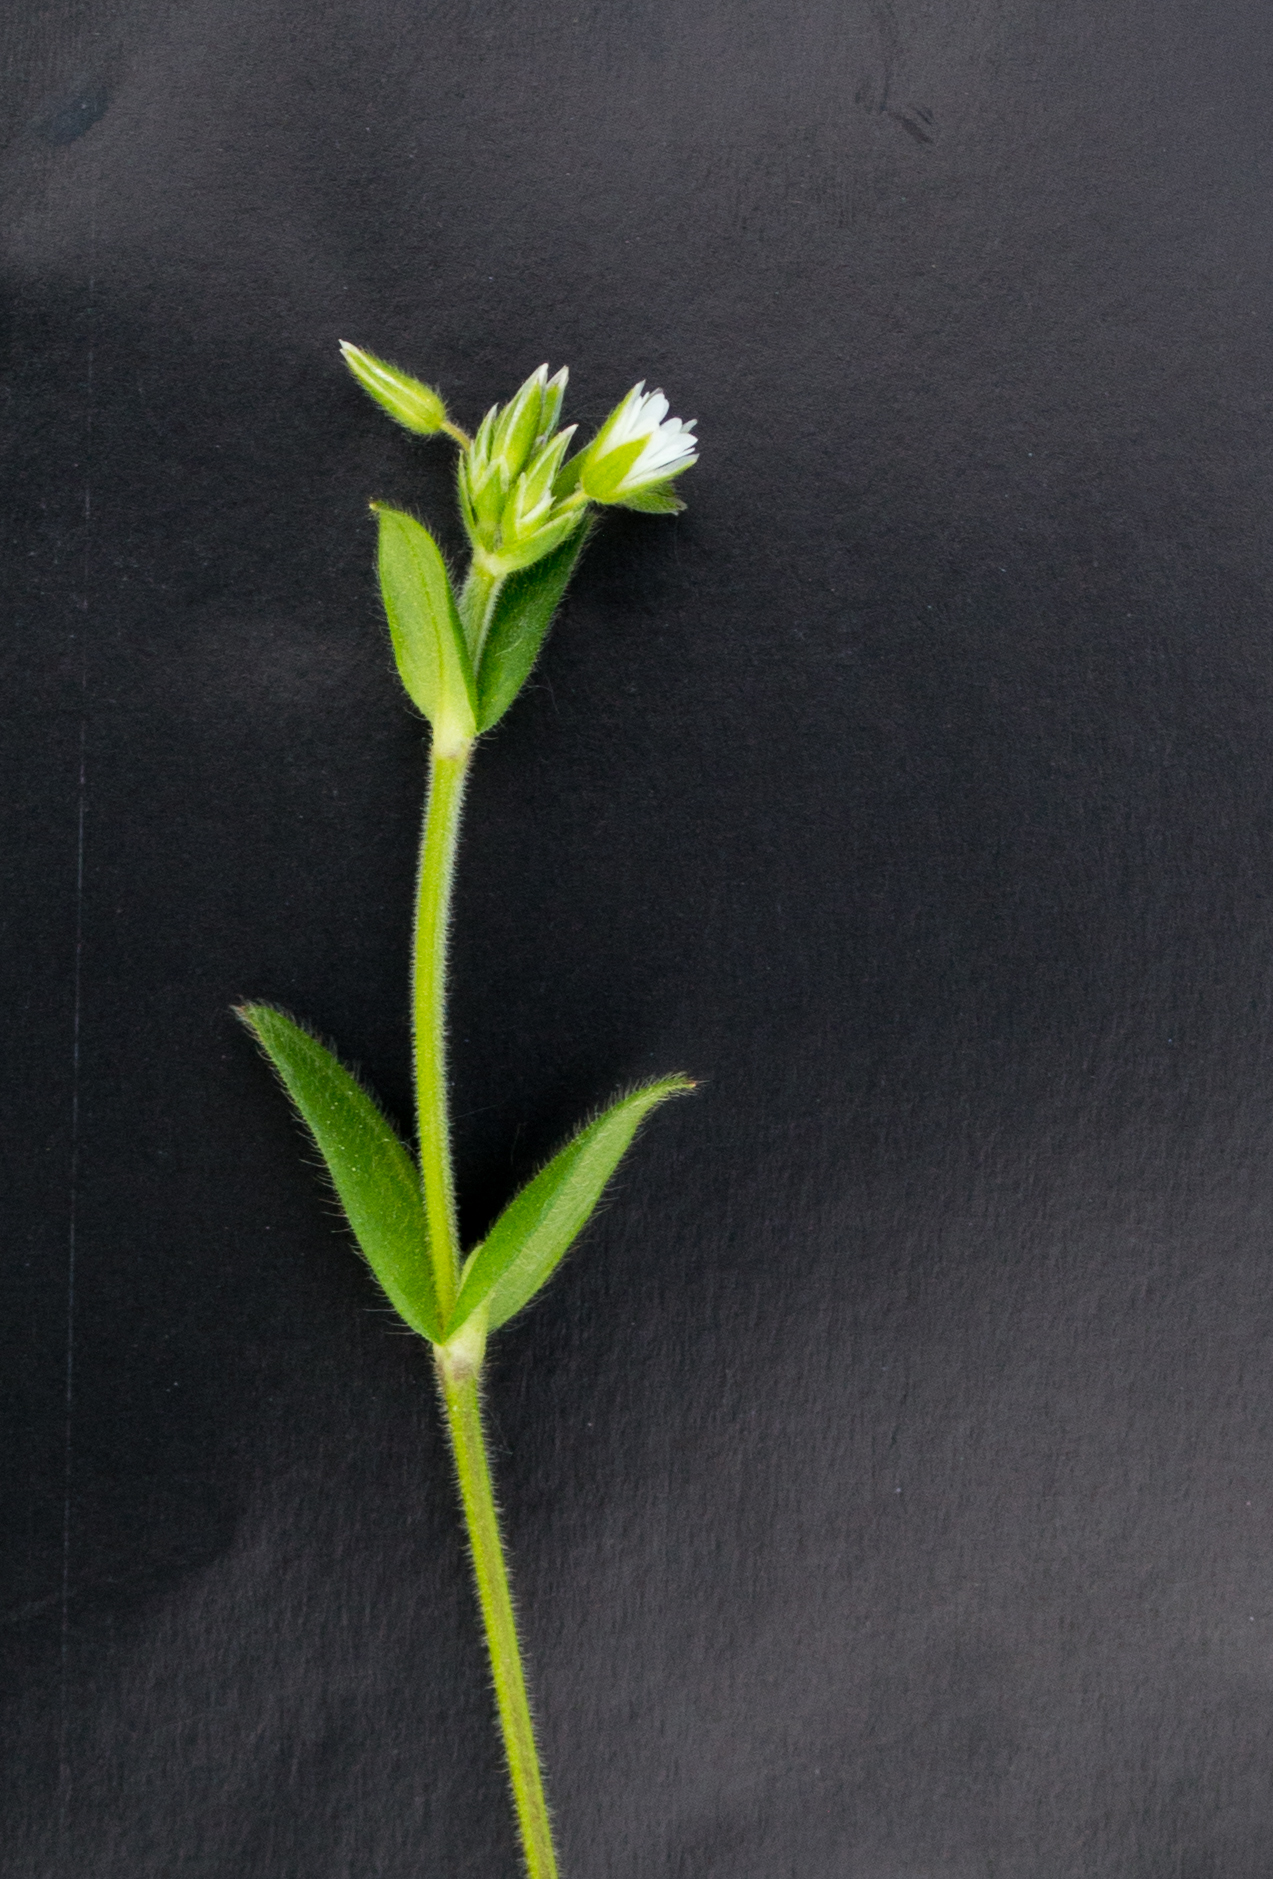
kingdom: Plantae
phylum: Tracheophyta
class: Magnoliopsida
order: Caryophyllales
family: Caryophyllaceae
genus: Cerastium
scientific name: Cerastium holosteoides
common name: Big chickweed
